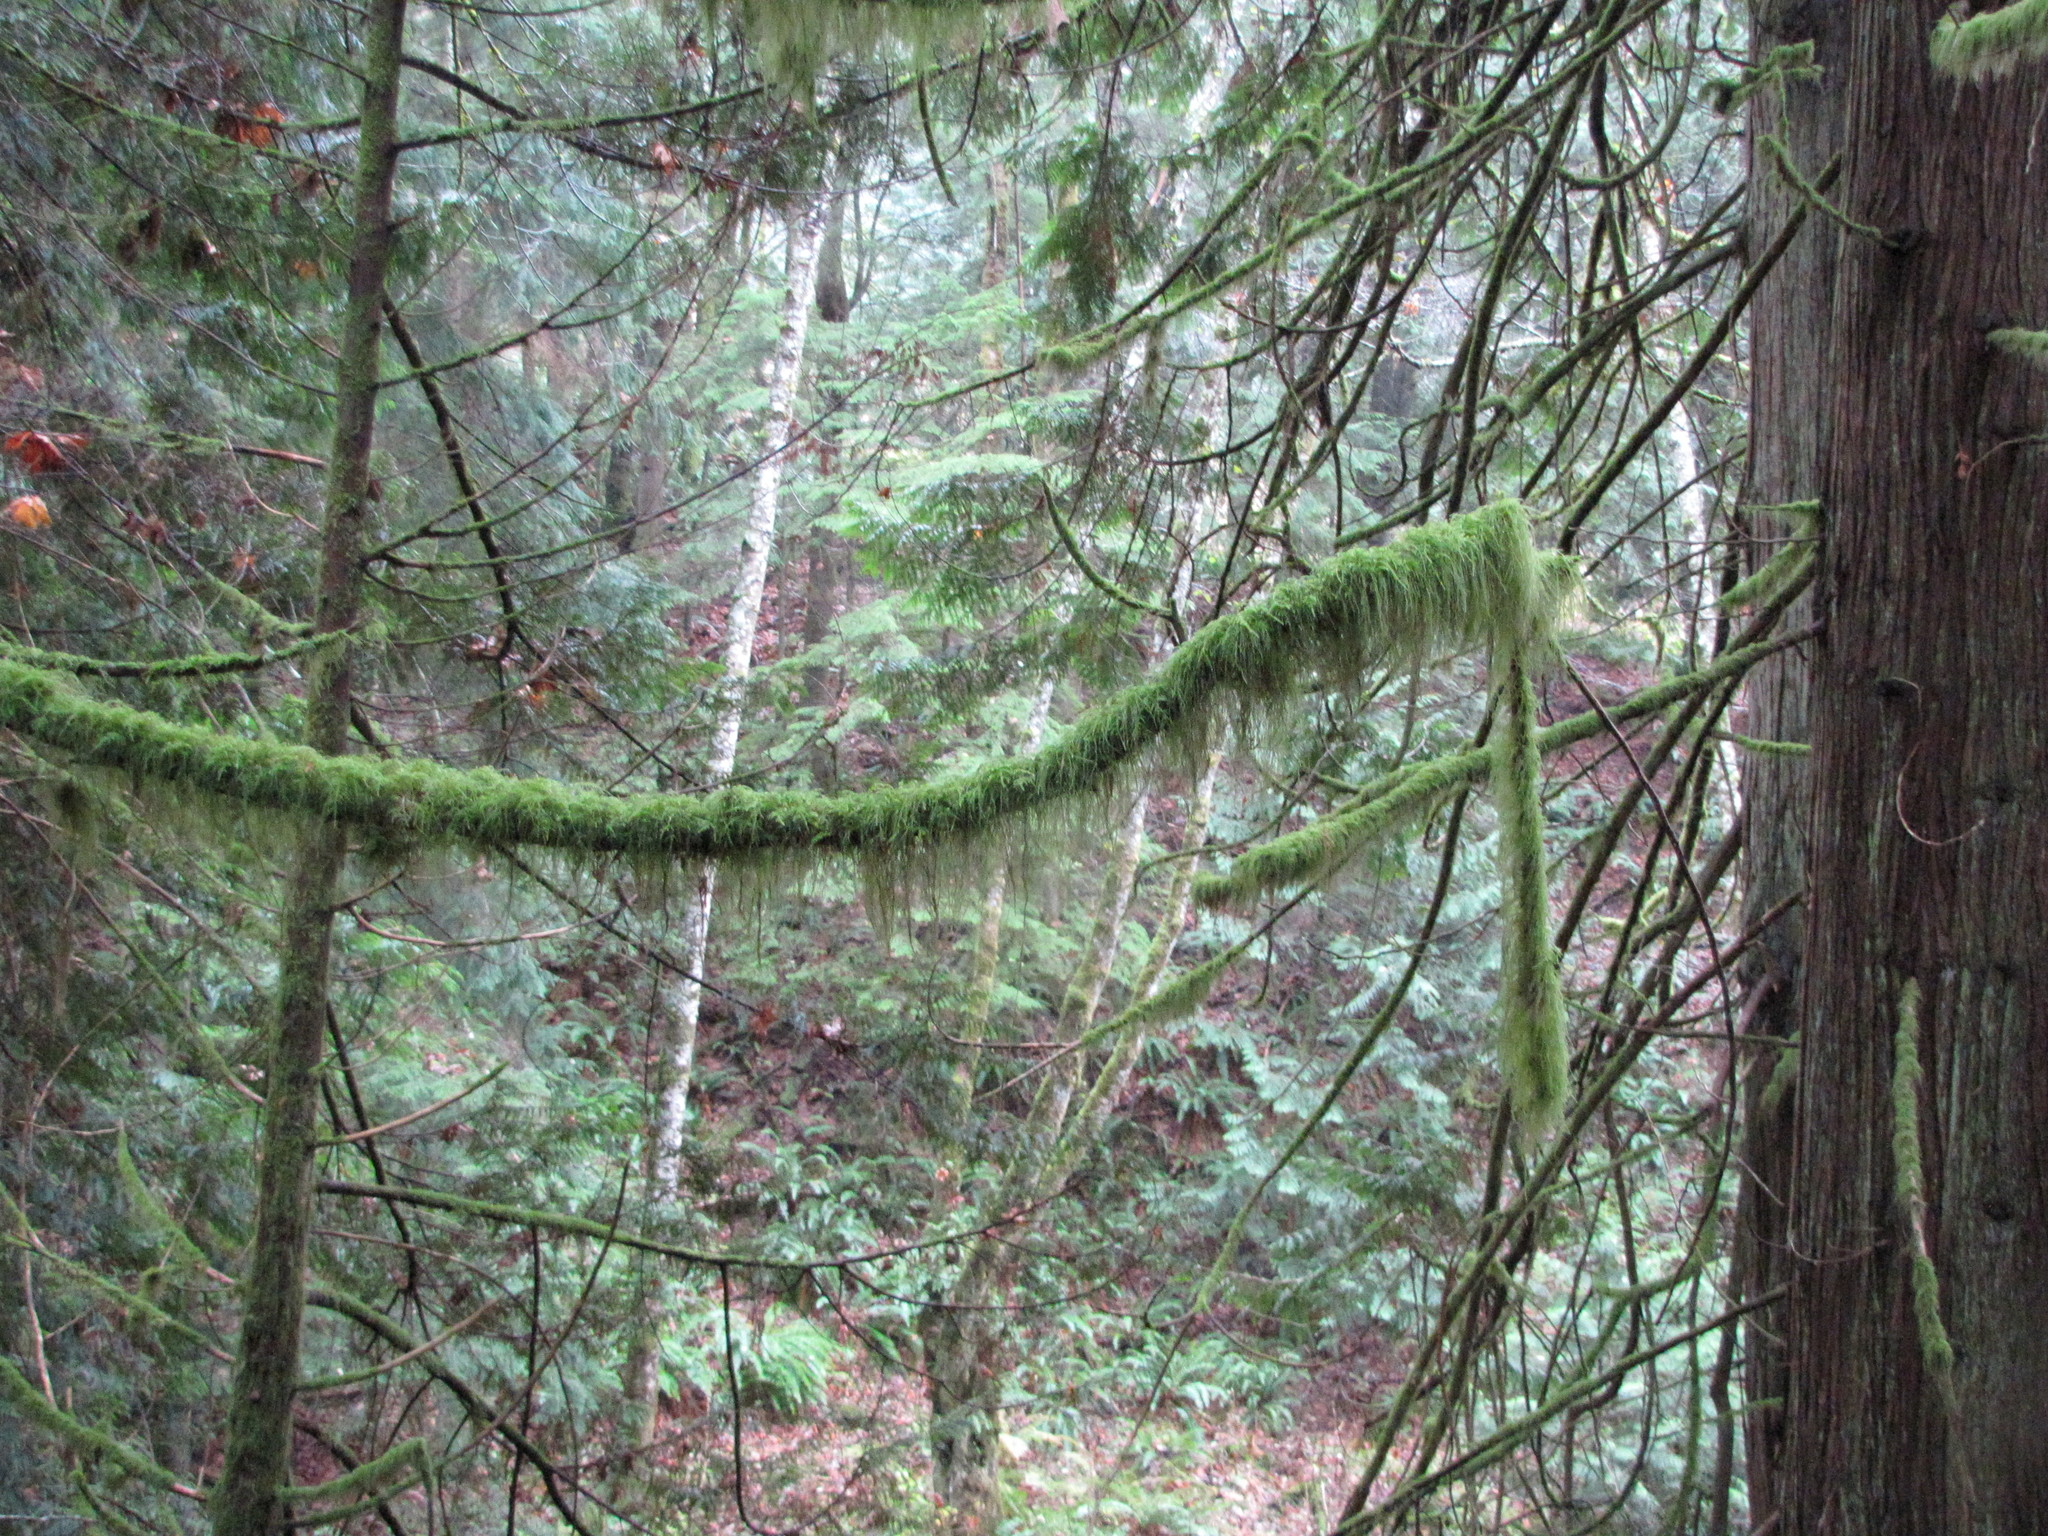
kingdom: Plantae
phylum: Bryophyta
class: Bryopsida
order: Hypnales
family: Lembophyllaceae
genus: Pseudisothecium
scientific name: Pseudisothecium stoloniferum
